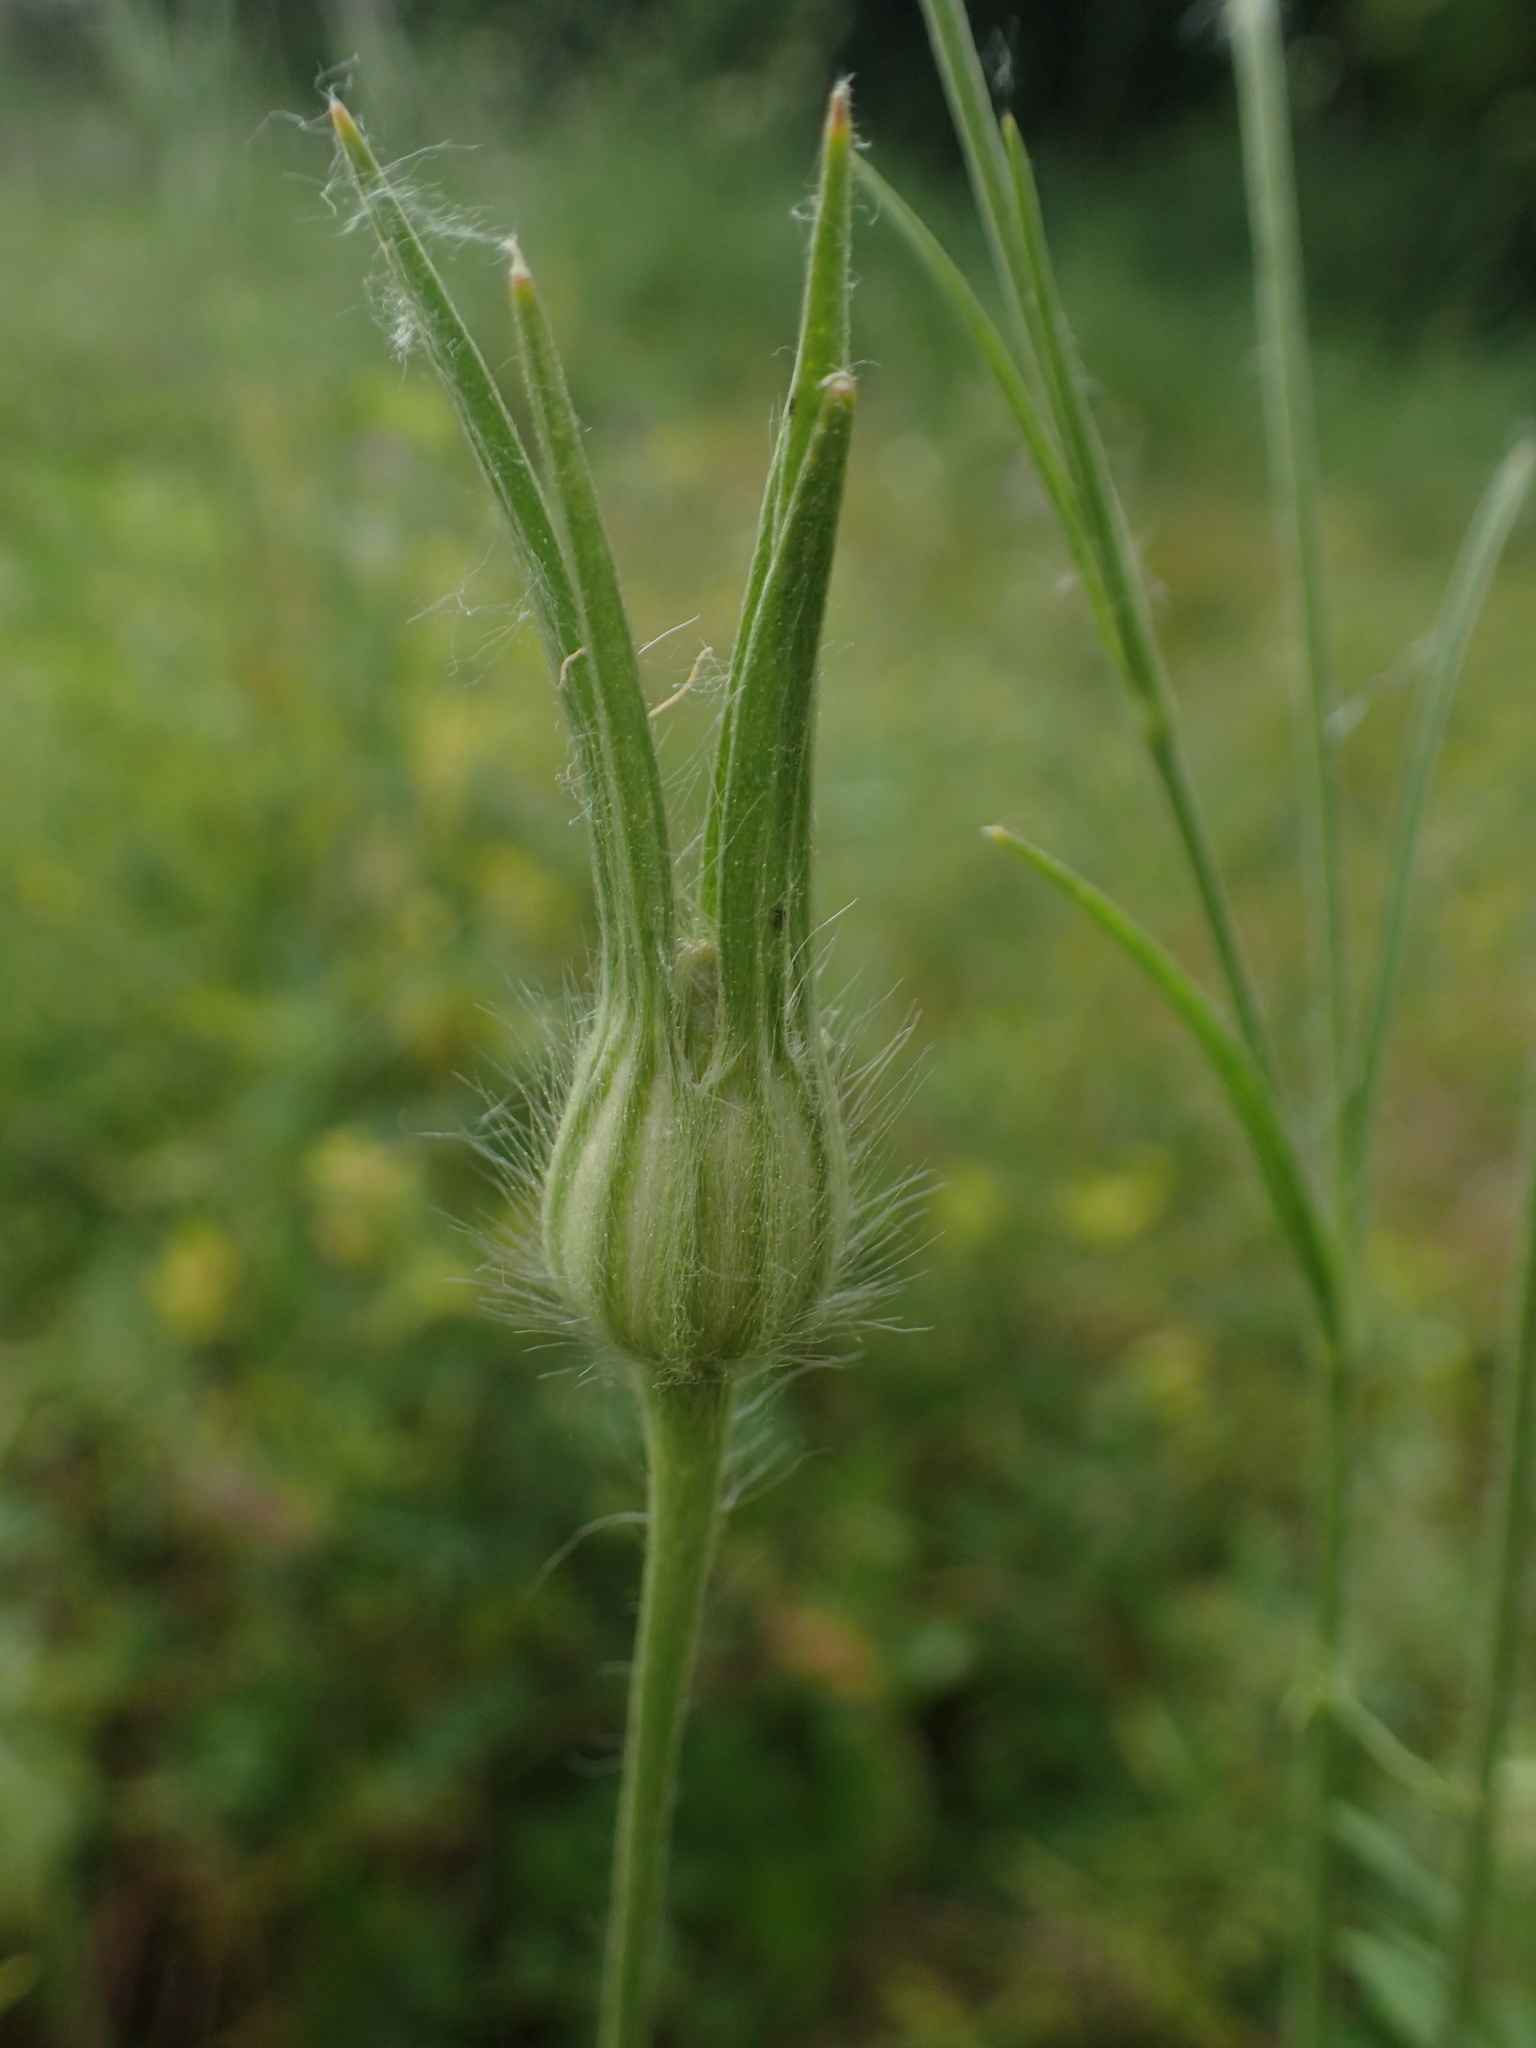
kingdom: Plantae
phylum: Tracheophyta
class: Magnoliopsida
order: Caryophyllales
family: Caryophyllaceae
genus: Agrostemma
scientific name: Agrostemma githago
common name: Common corncockle
